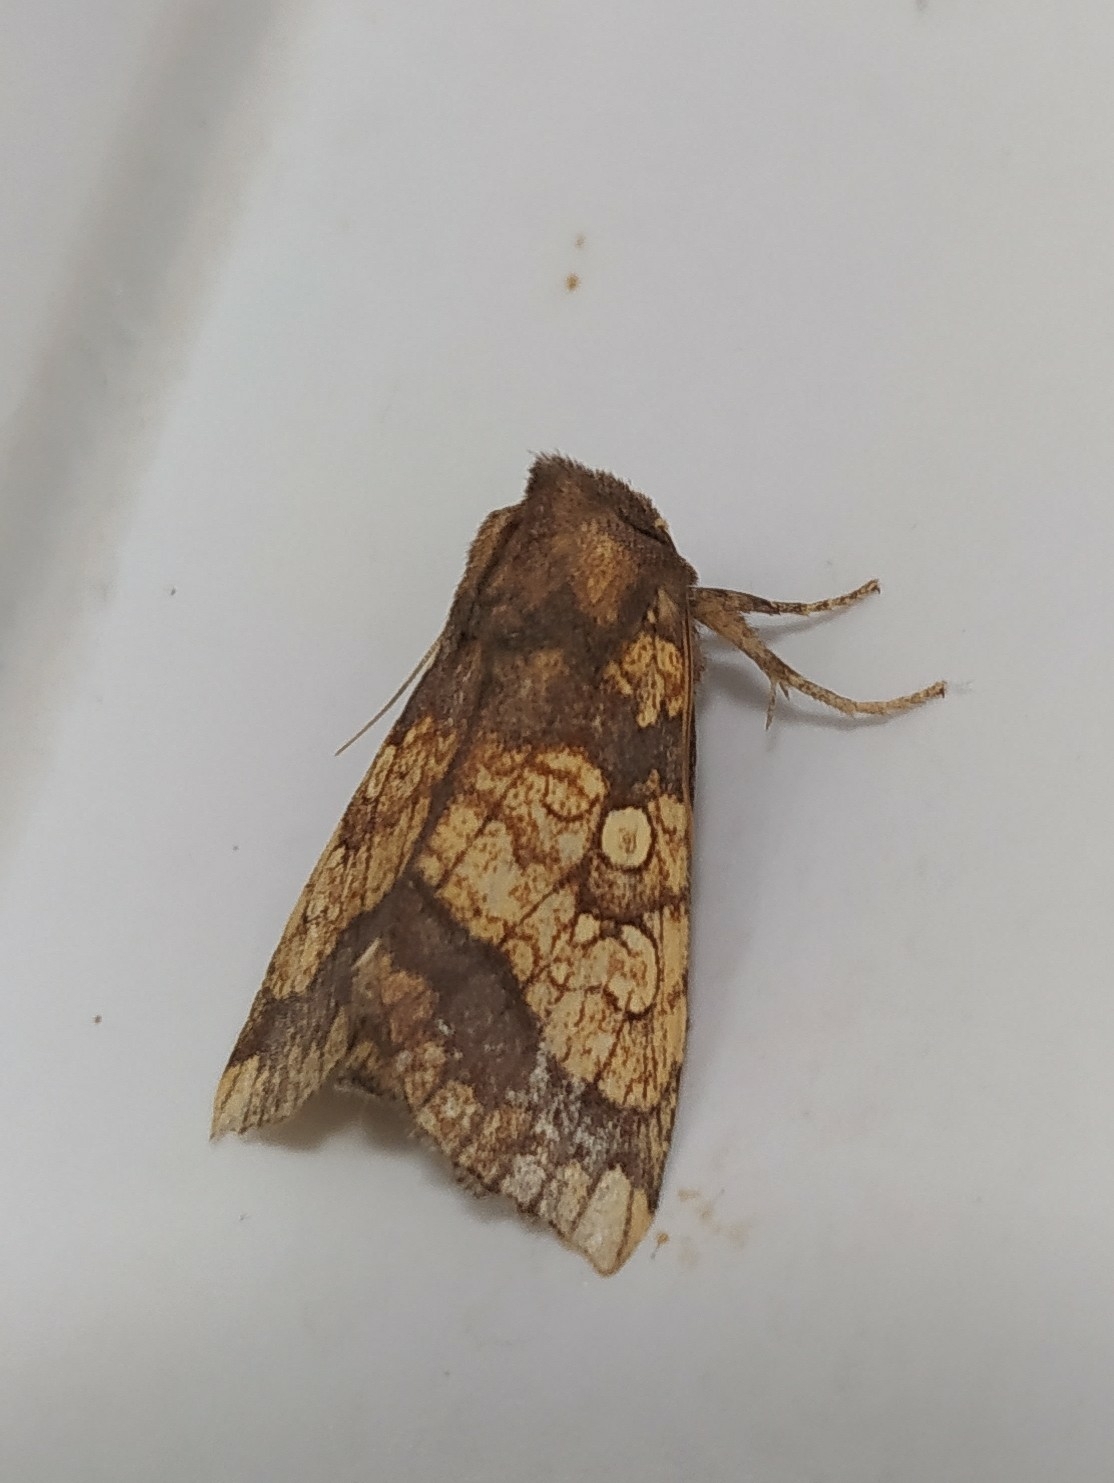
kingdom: Animalia
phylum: Arthropoda
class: Insecta
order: Lepidoptera
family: Noctuidae
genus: Gortyna
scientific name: Gortyna flavago
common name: Frosted orange
